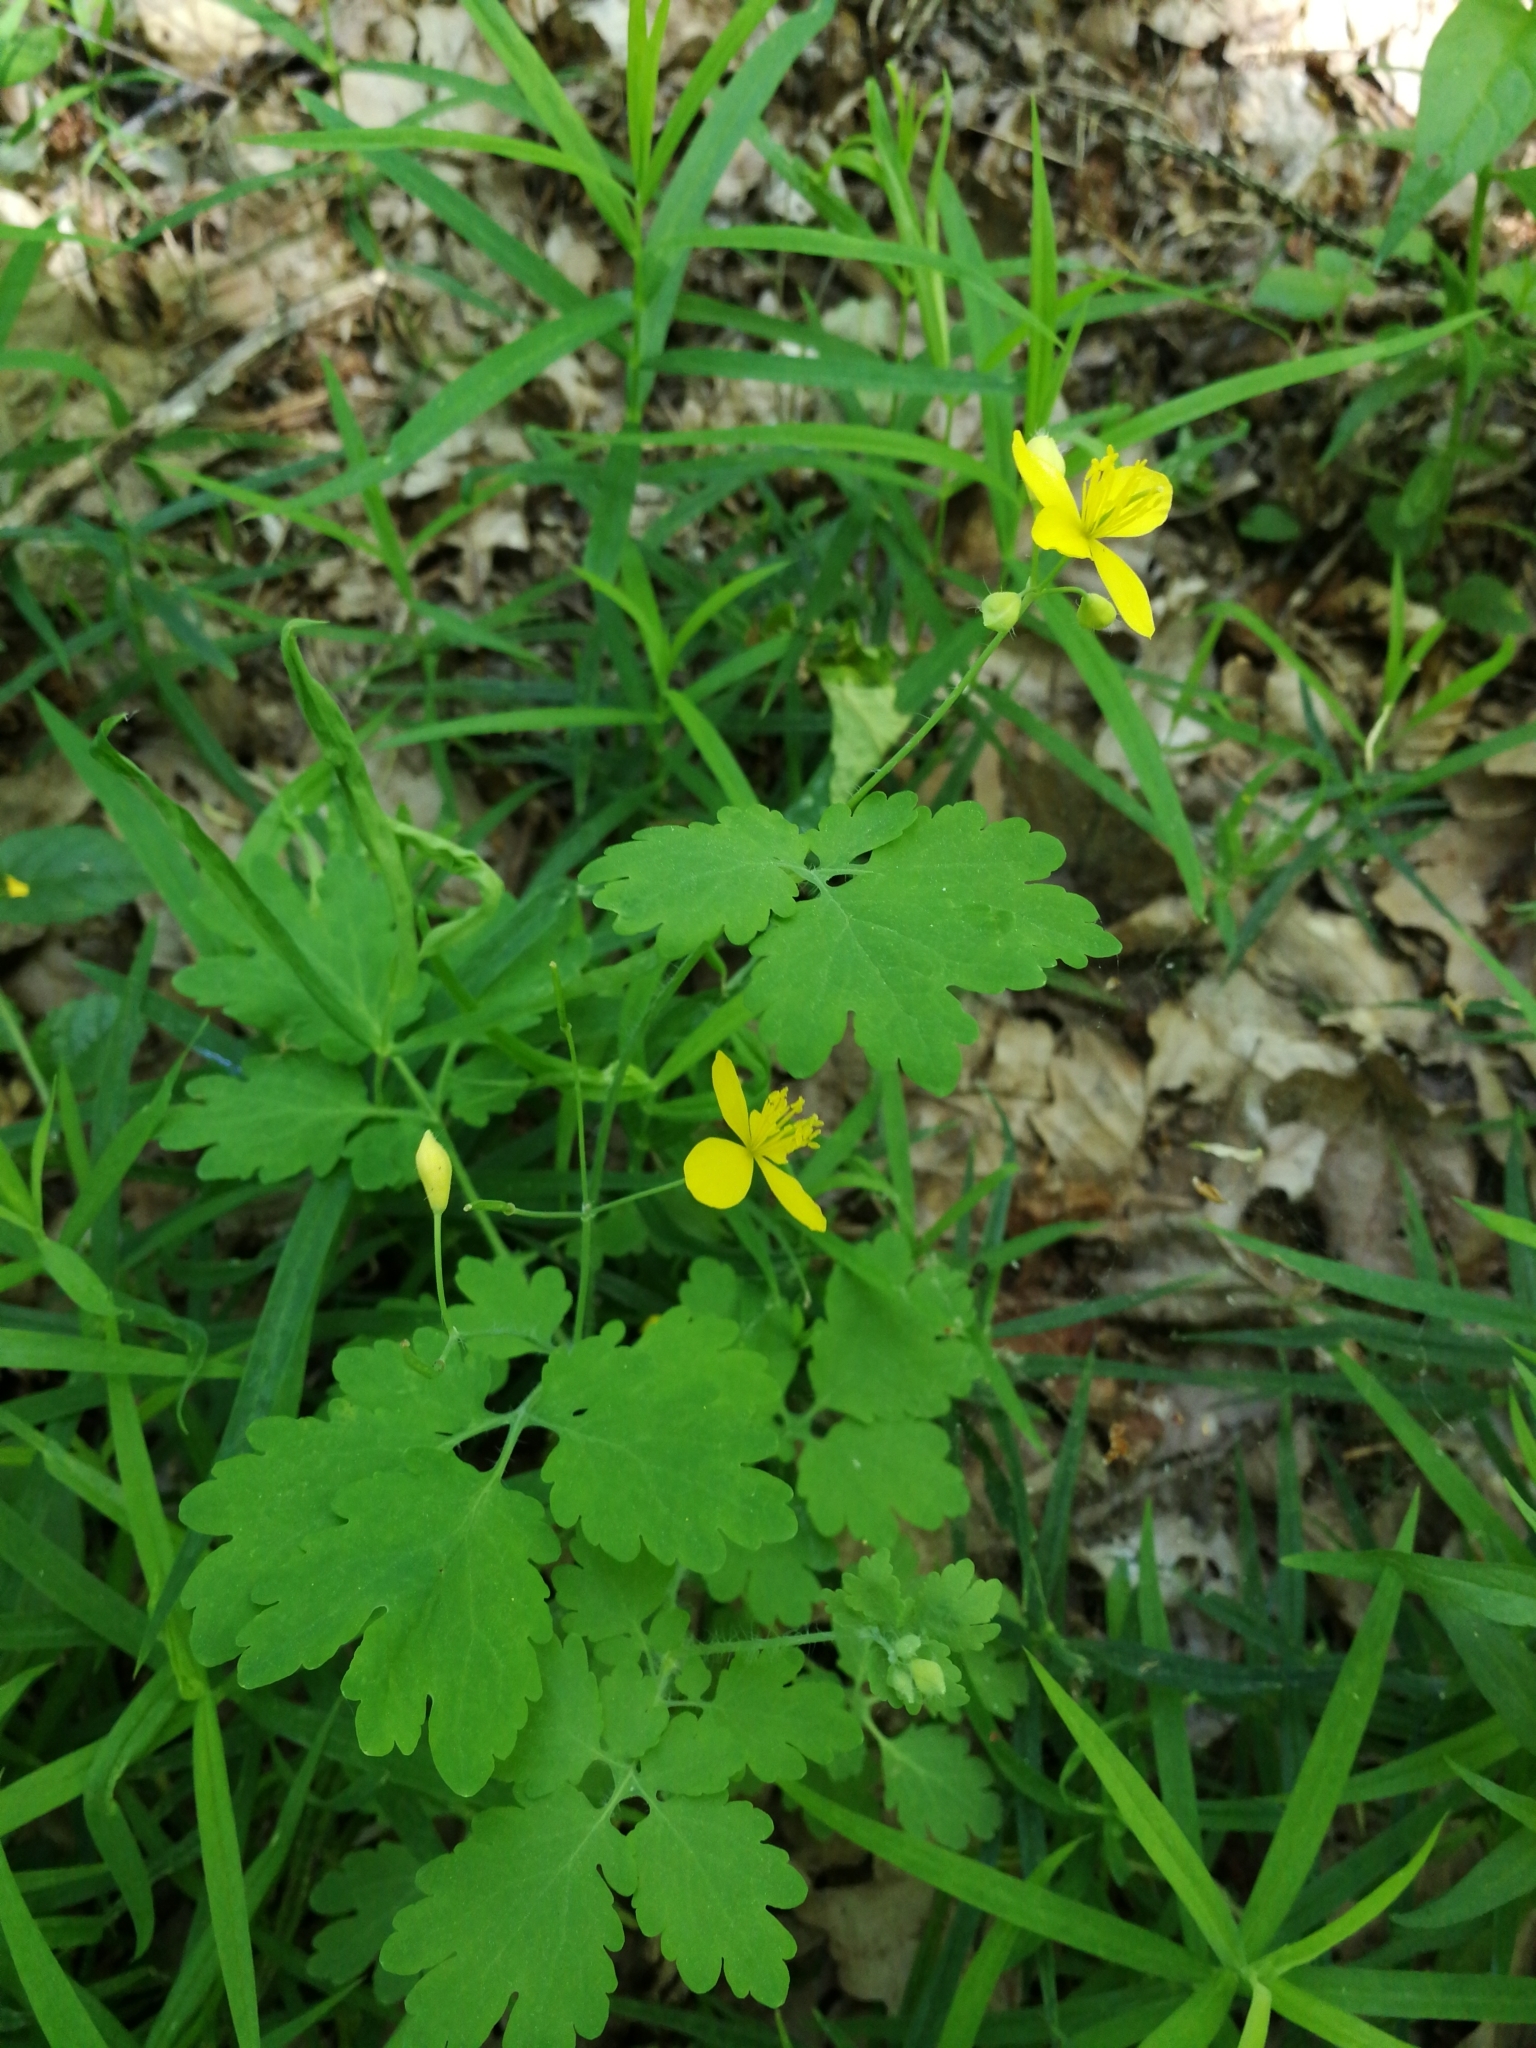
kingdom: Plantae
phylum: Tracheophyta
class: Magnoliopsida
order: Ranunculales
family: Papaveraceae
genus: Chelidonium
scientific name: Chelidonium majus
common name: Greater celandine
